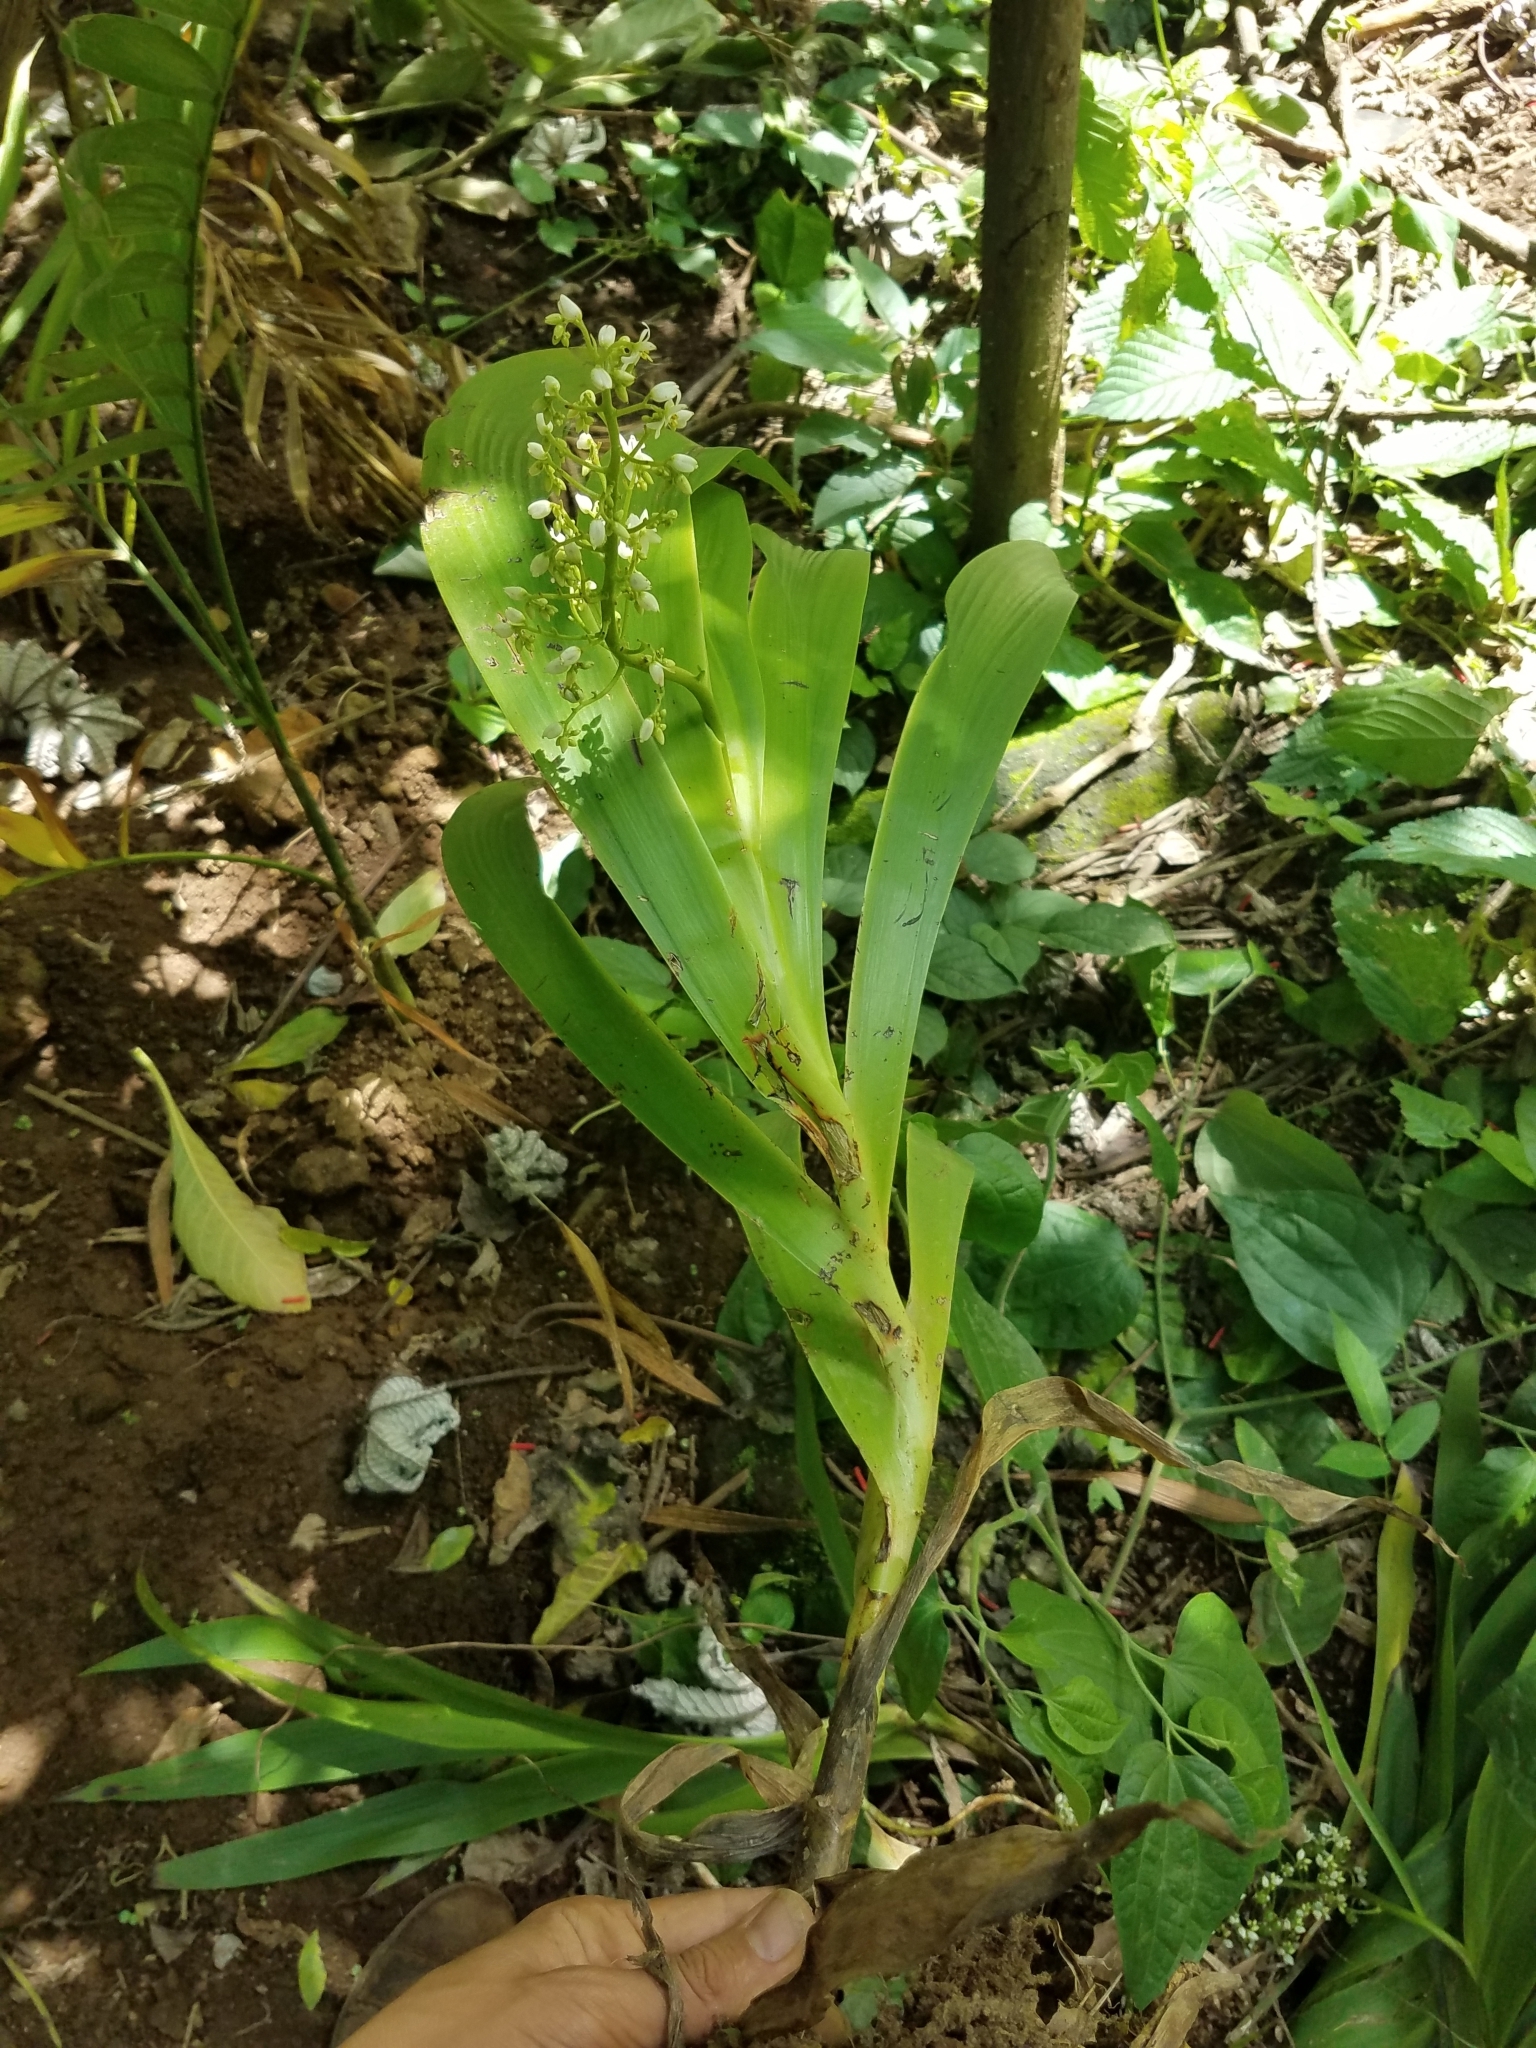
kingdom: Plantae
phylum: Tracheophyta
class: Liliopsida
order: Commelinales
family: Haemodoraceae
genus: Xiphidium
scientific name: Xiphidium caeruleum
